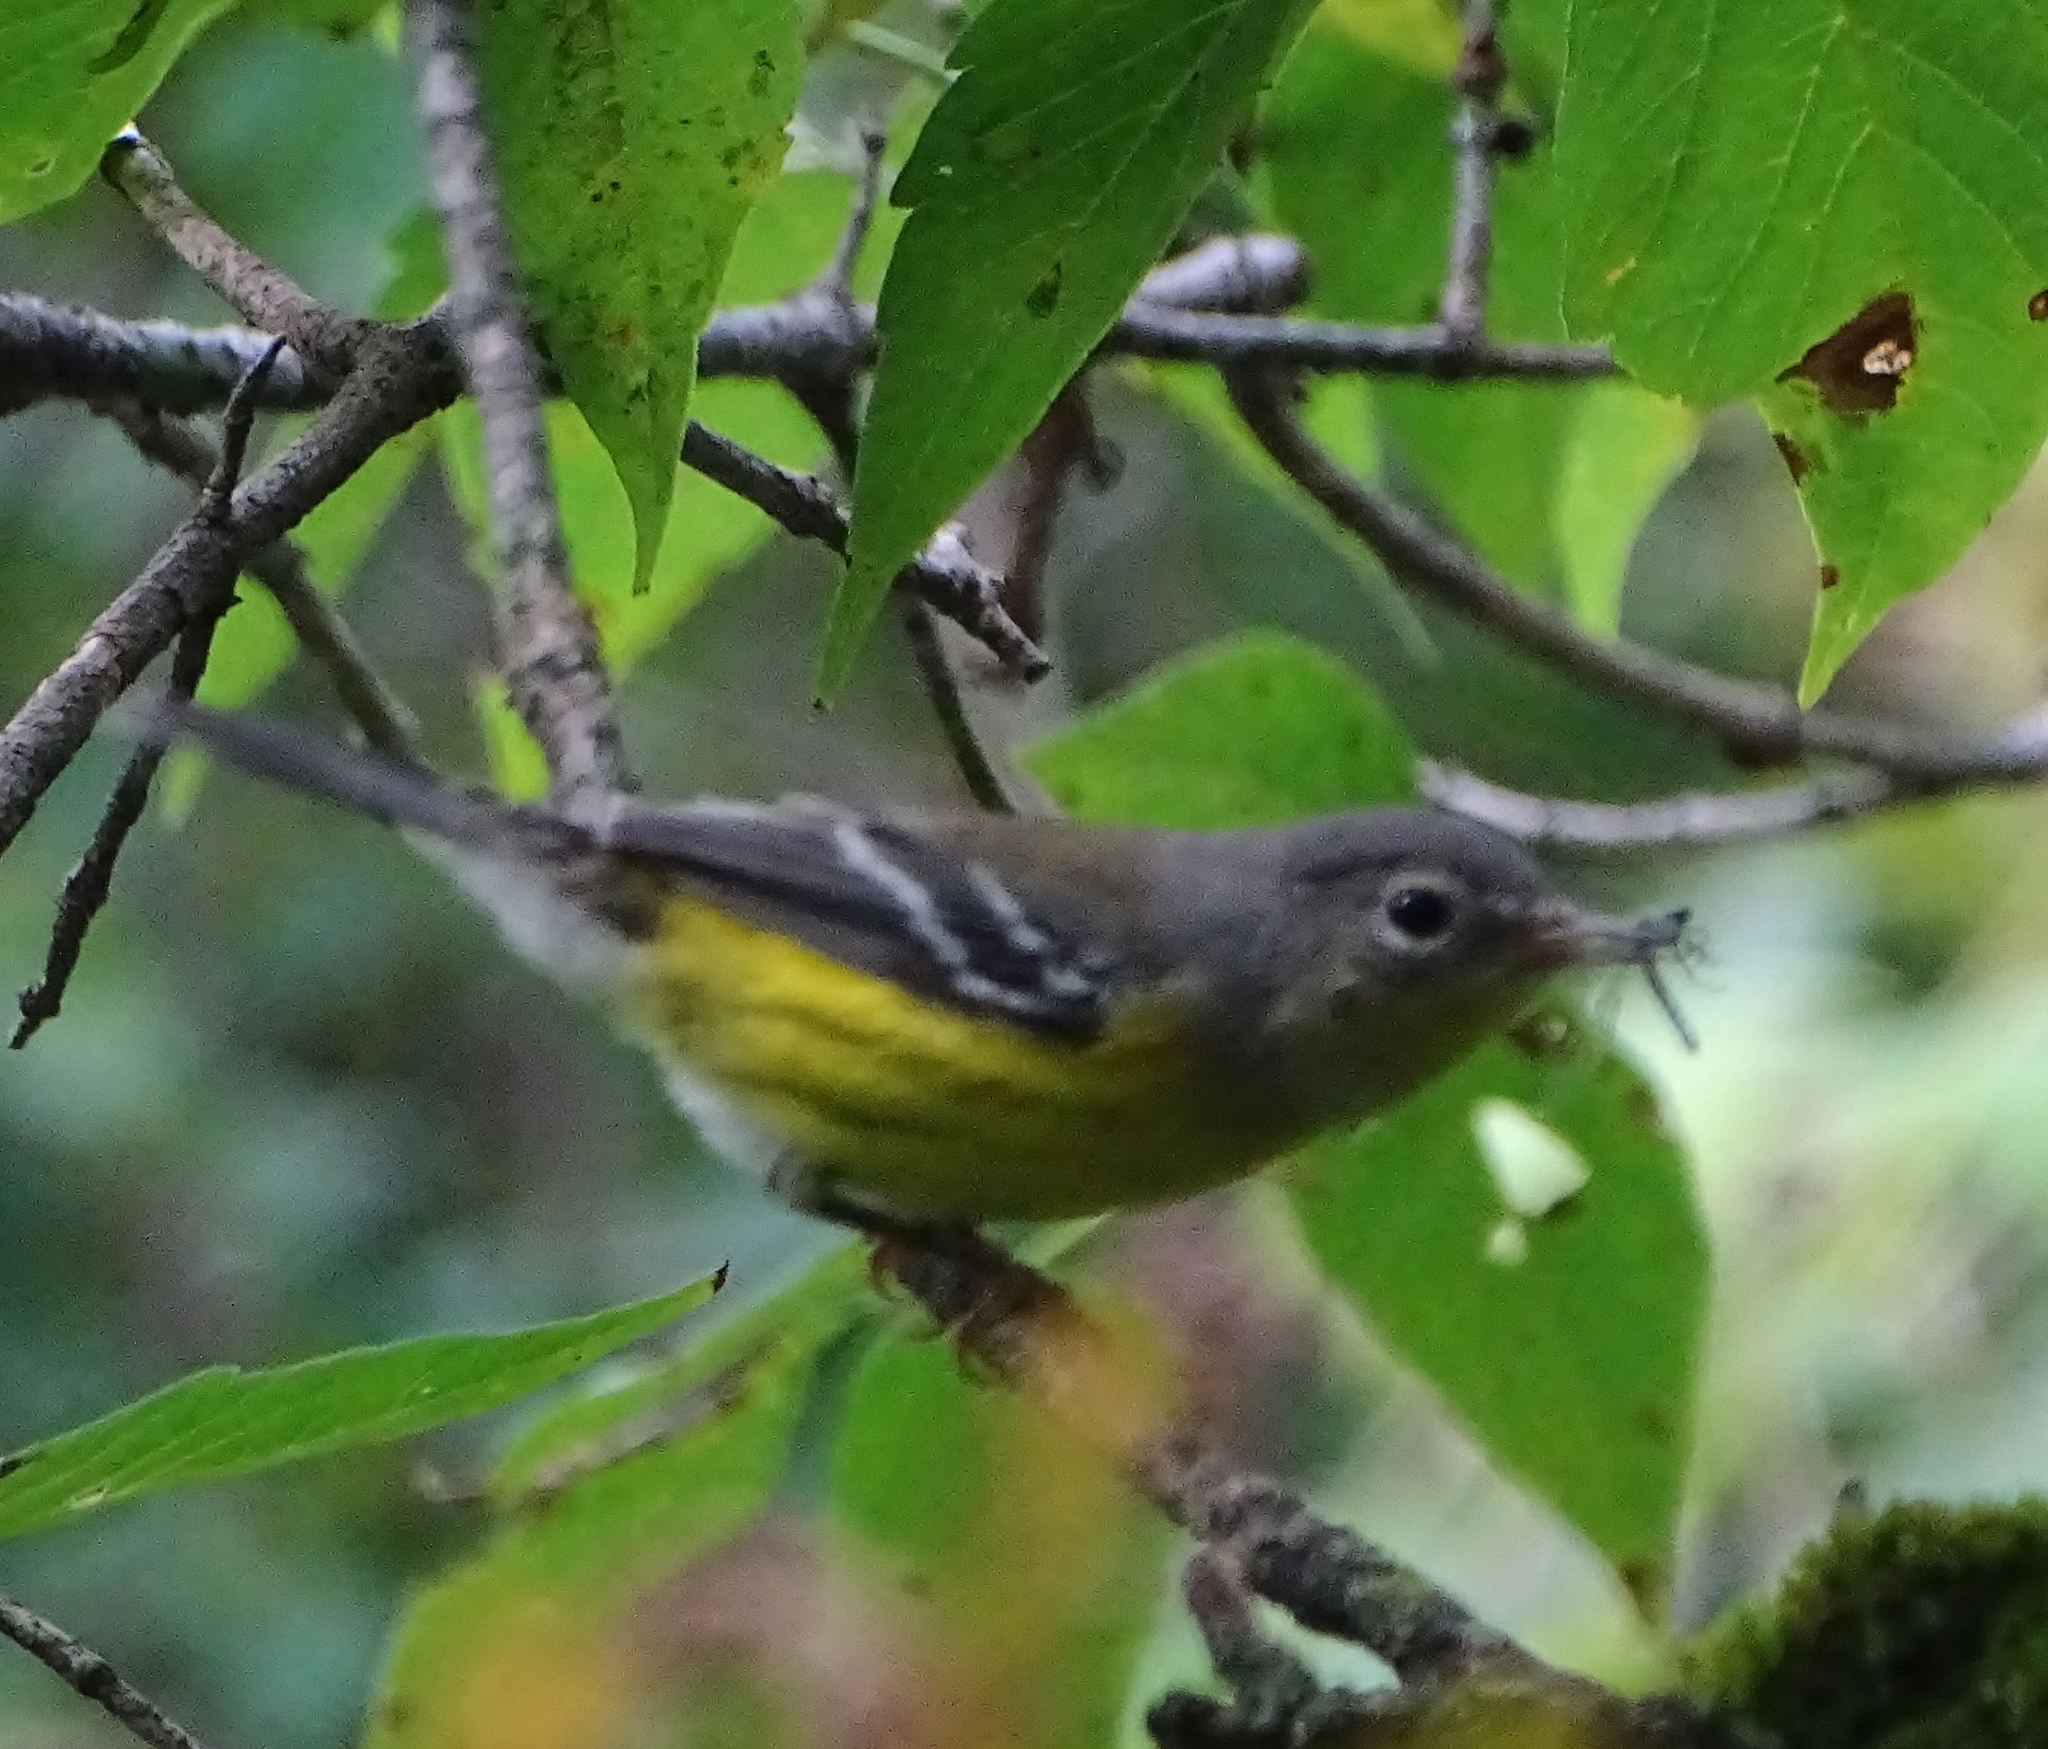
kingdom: Animalia
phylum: Chordata
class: Aves
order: Passeriformes
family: Parulidae
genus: Setophaga
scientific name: Setophaga magnolia
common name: Magnolia warbler
